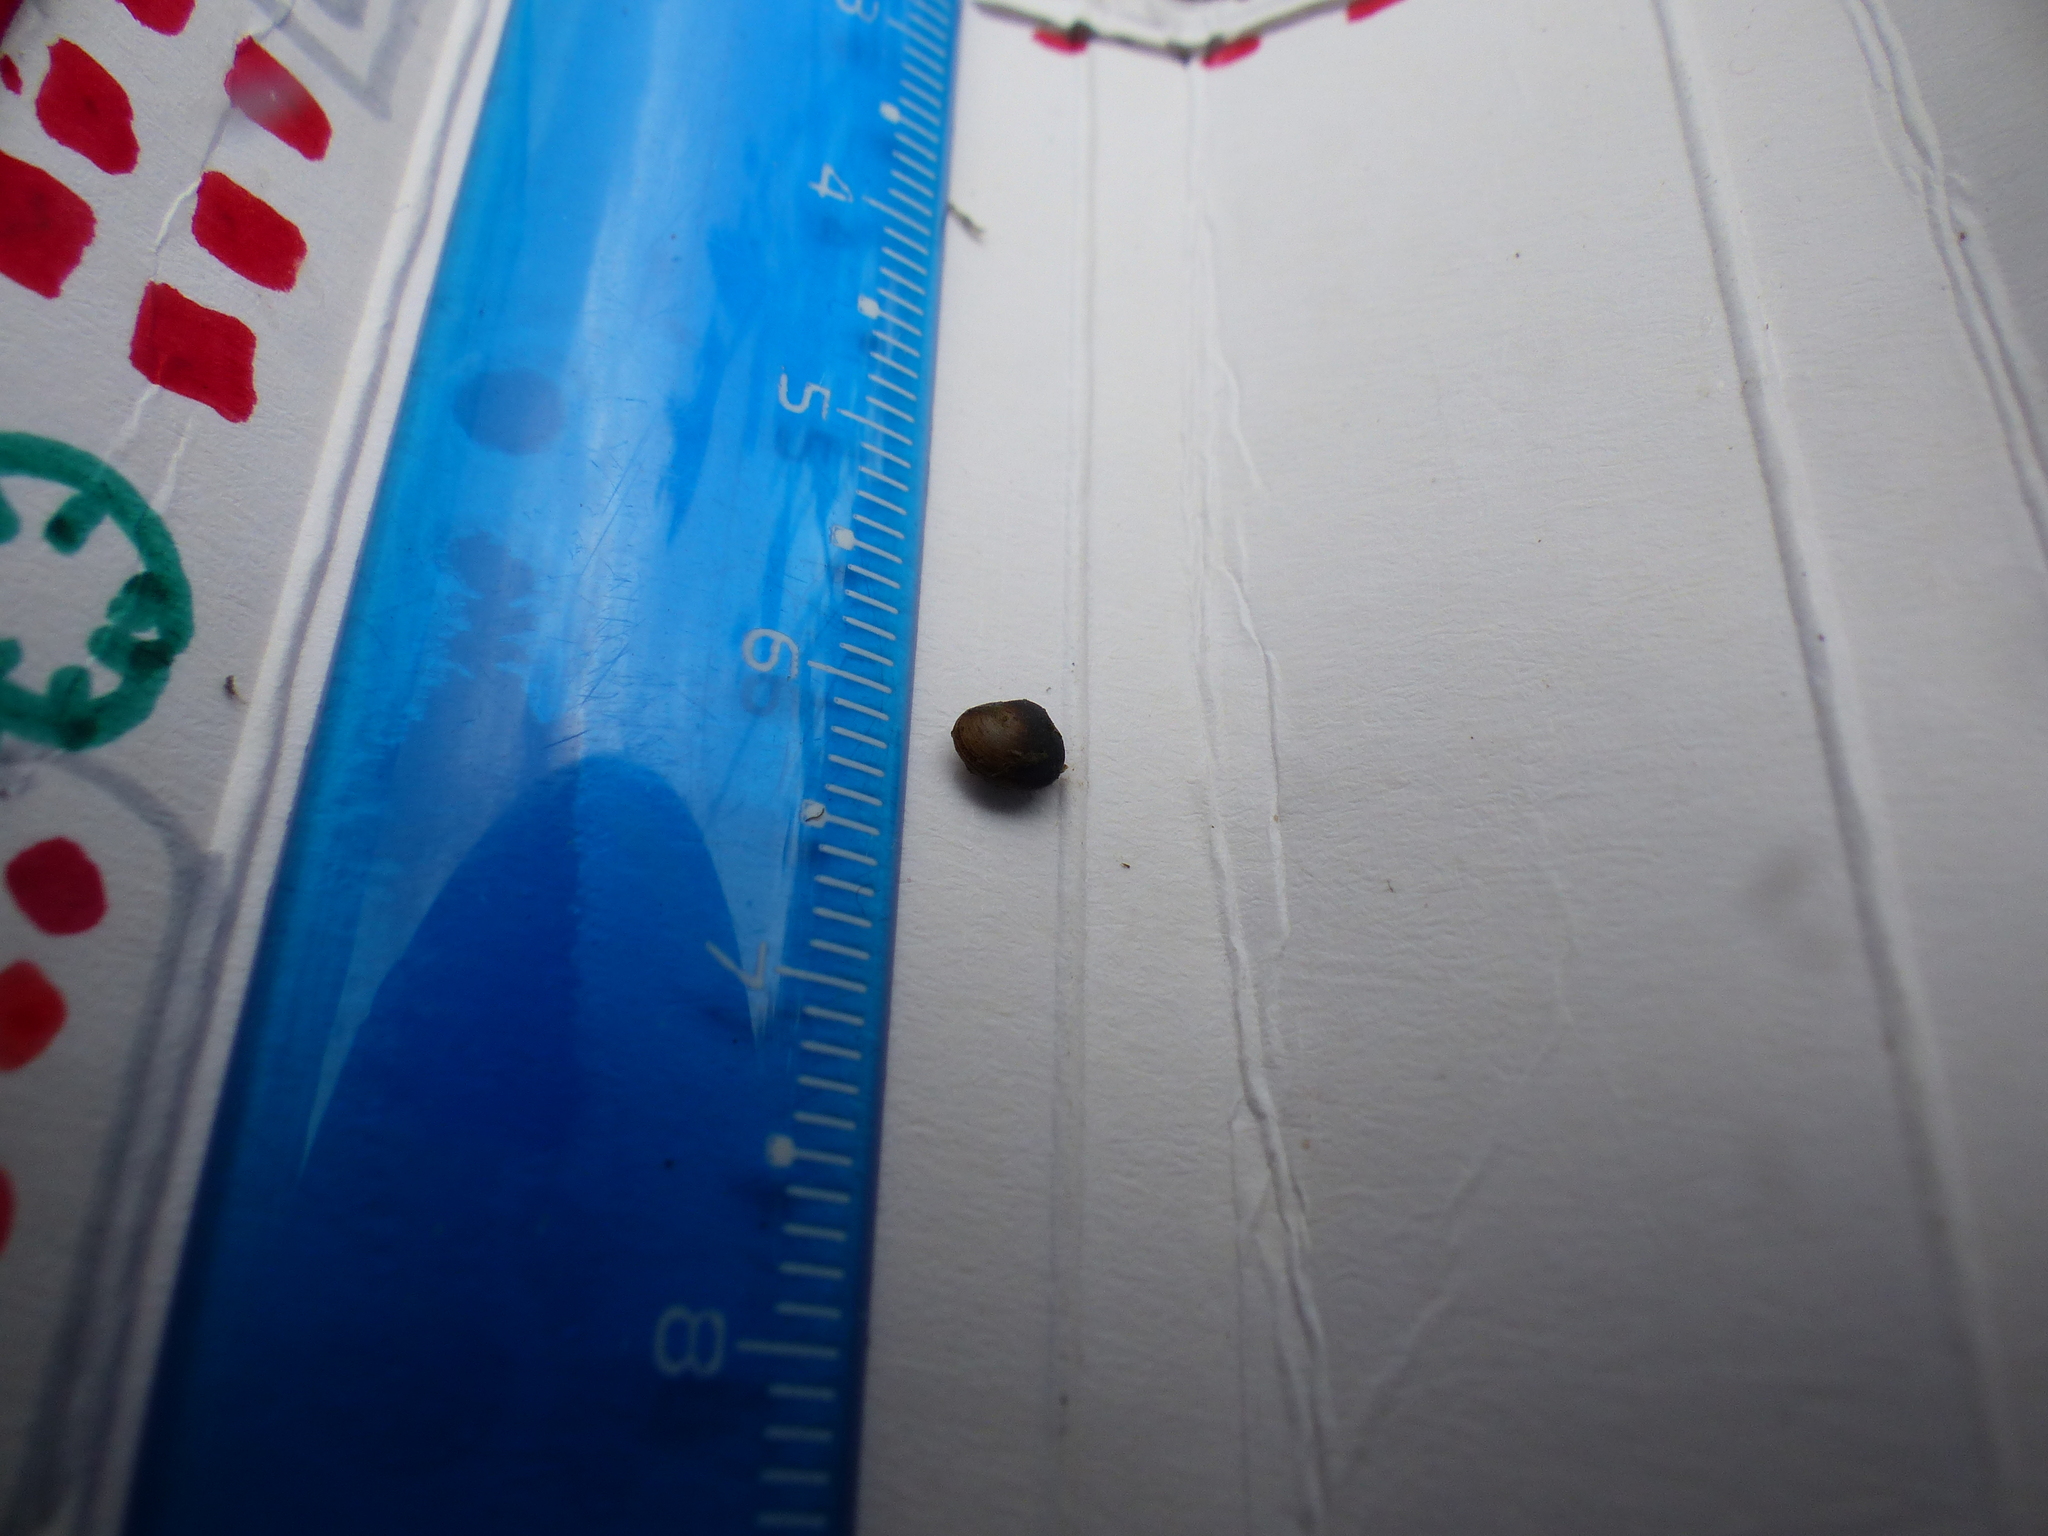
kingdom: Animalia
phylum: Mollusca
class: Bivalvia
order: Sphaeriida
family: Sphaeriidae
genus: Sphaerium
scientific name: Sphaerium forbesii
